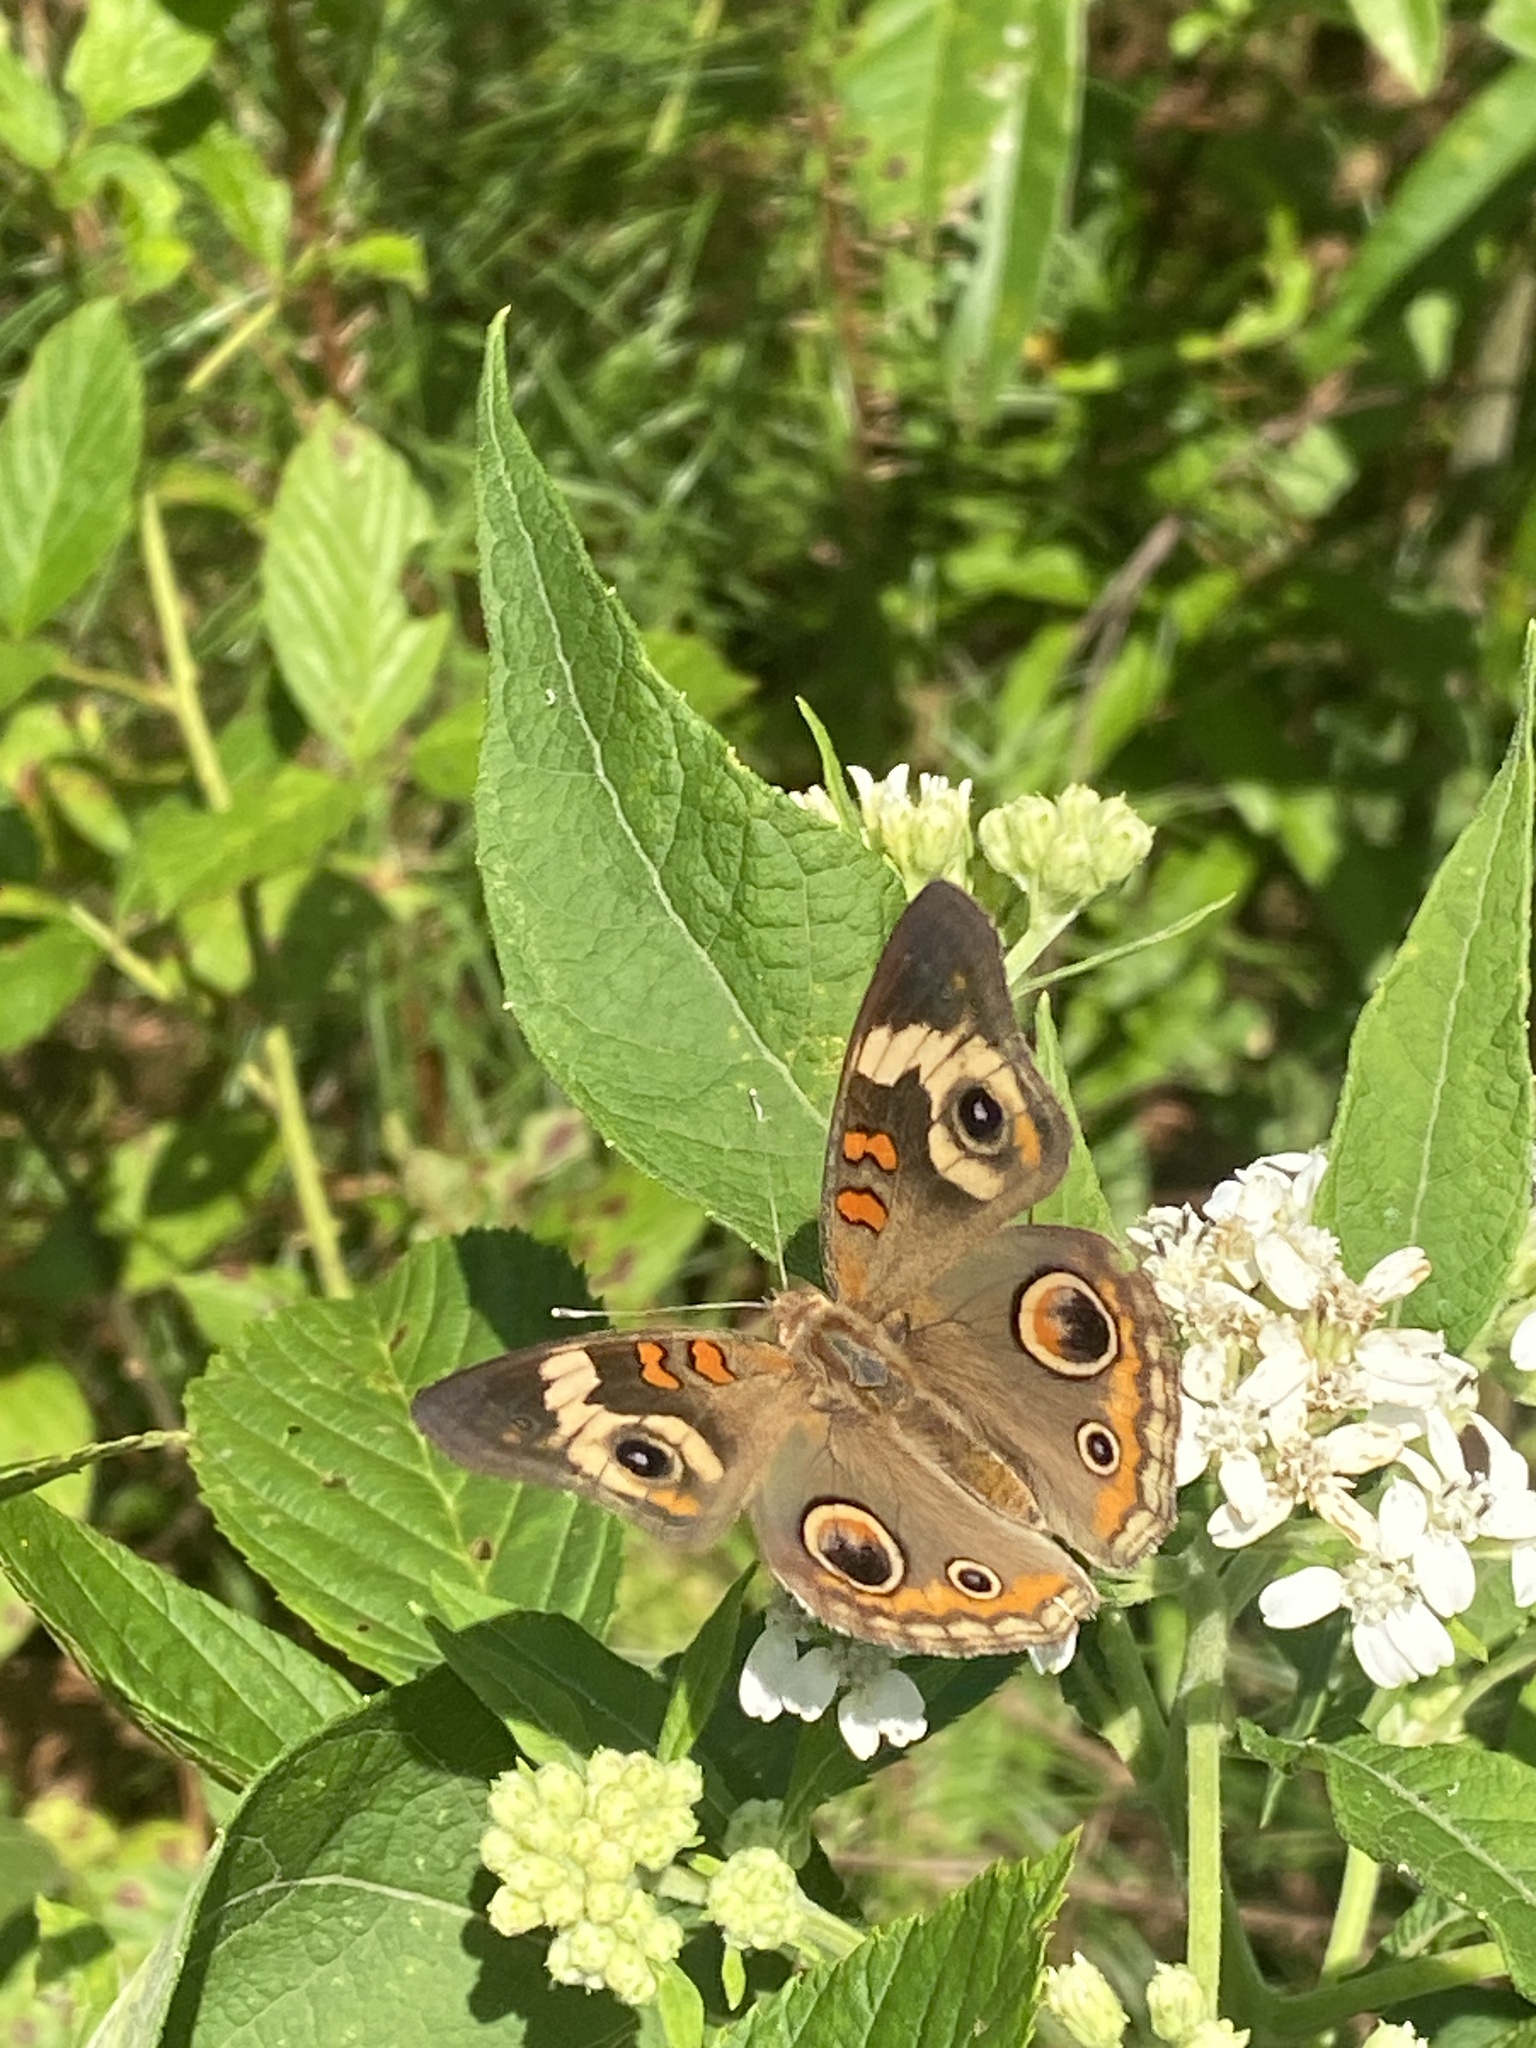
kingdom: Animalia
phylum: Arthropoda
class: Insecta
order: Lepidoptera
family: Nymphalidae
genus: Junonia
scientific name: Junonia coenia
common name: Common buckeye
